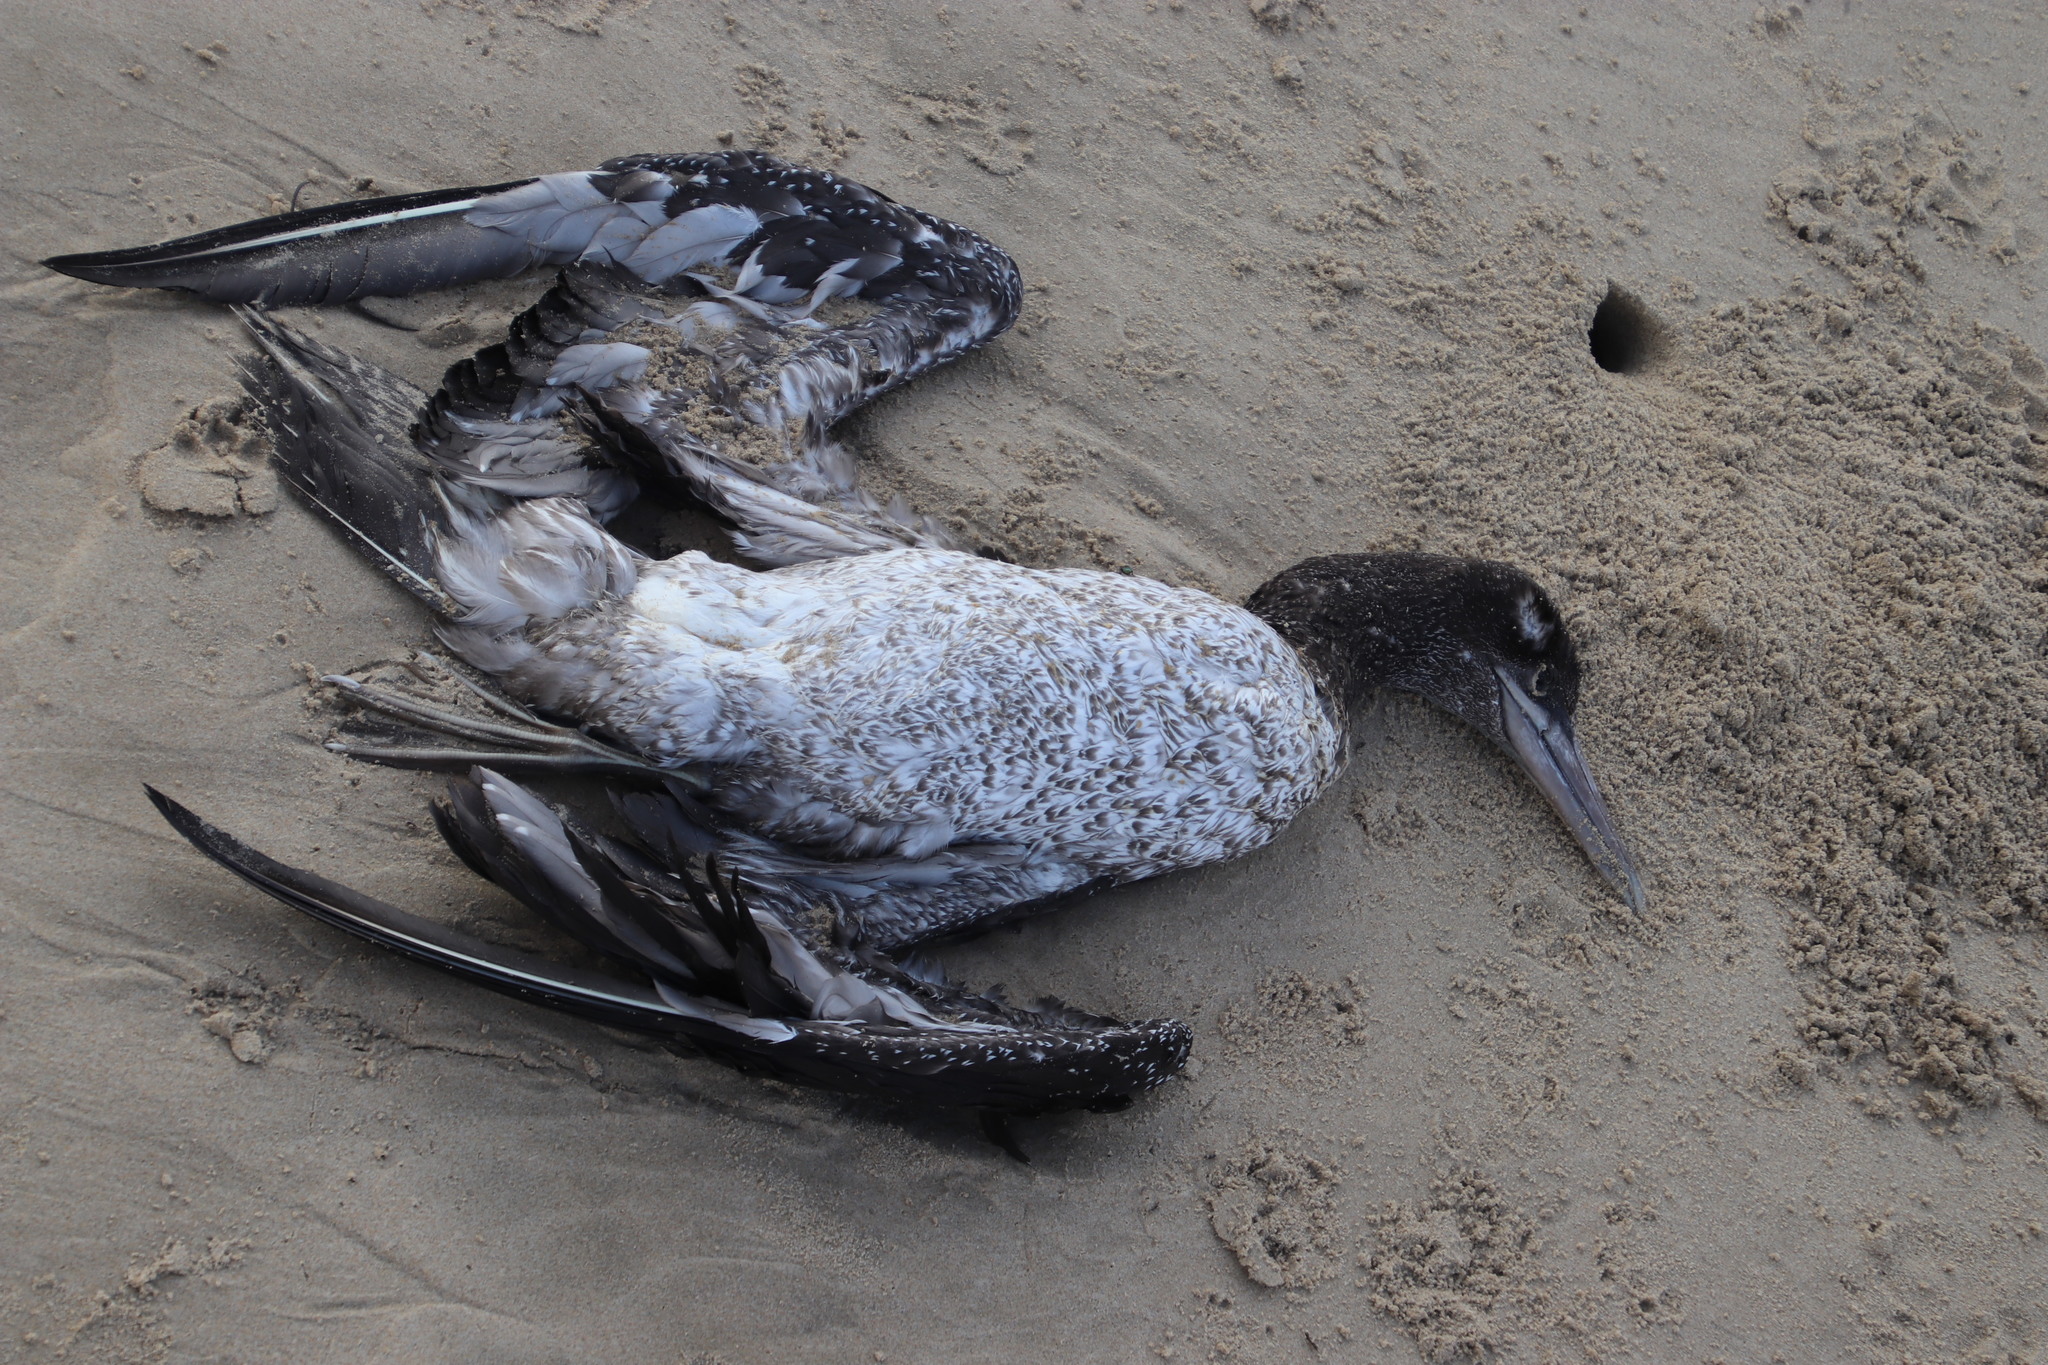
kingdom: Animalia
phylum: Chordata
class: Aves
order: Suliformes
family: Sulidae
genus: Morus
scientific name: Morus capensis
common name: Cape gannet
